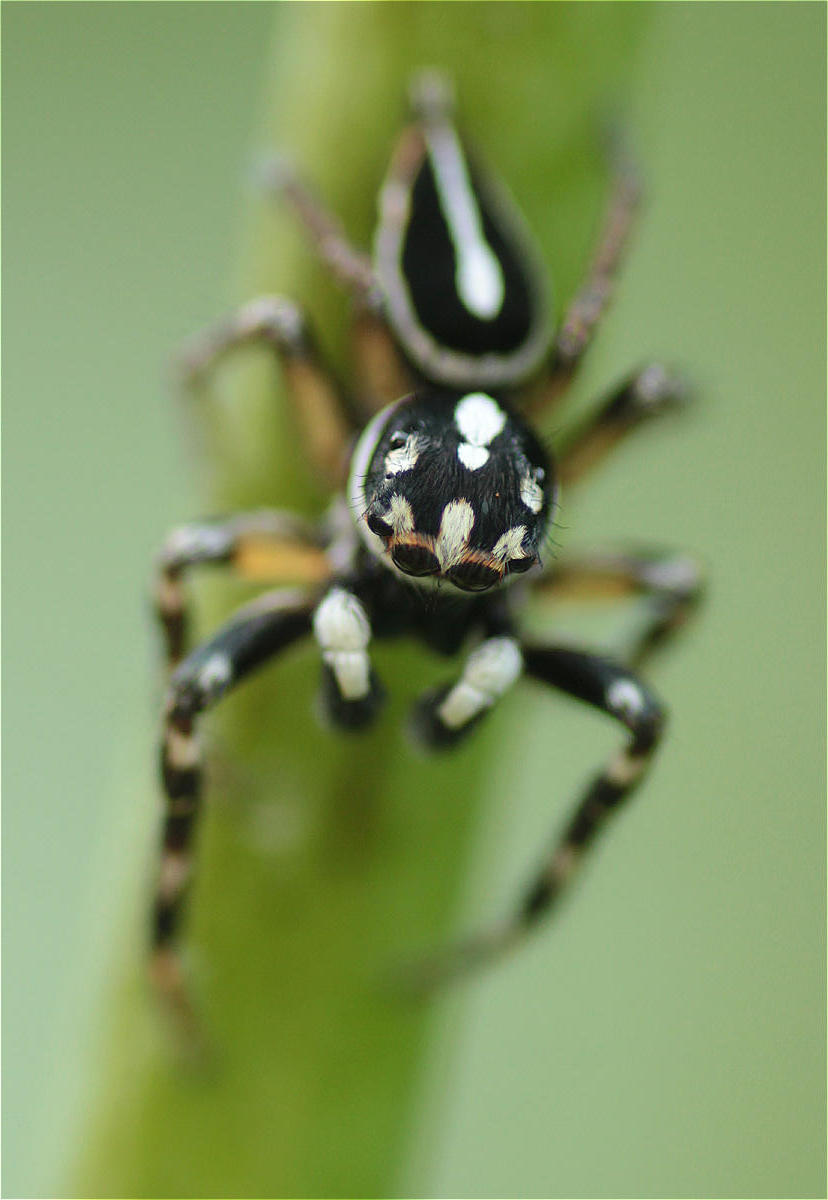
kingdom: Animalia
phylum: Arthropoda
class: Arachnida
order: Araneae
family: Salticidae
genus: Freya
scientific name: Freya decorata
